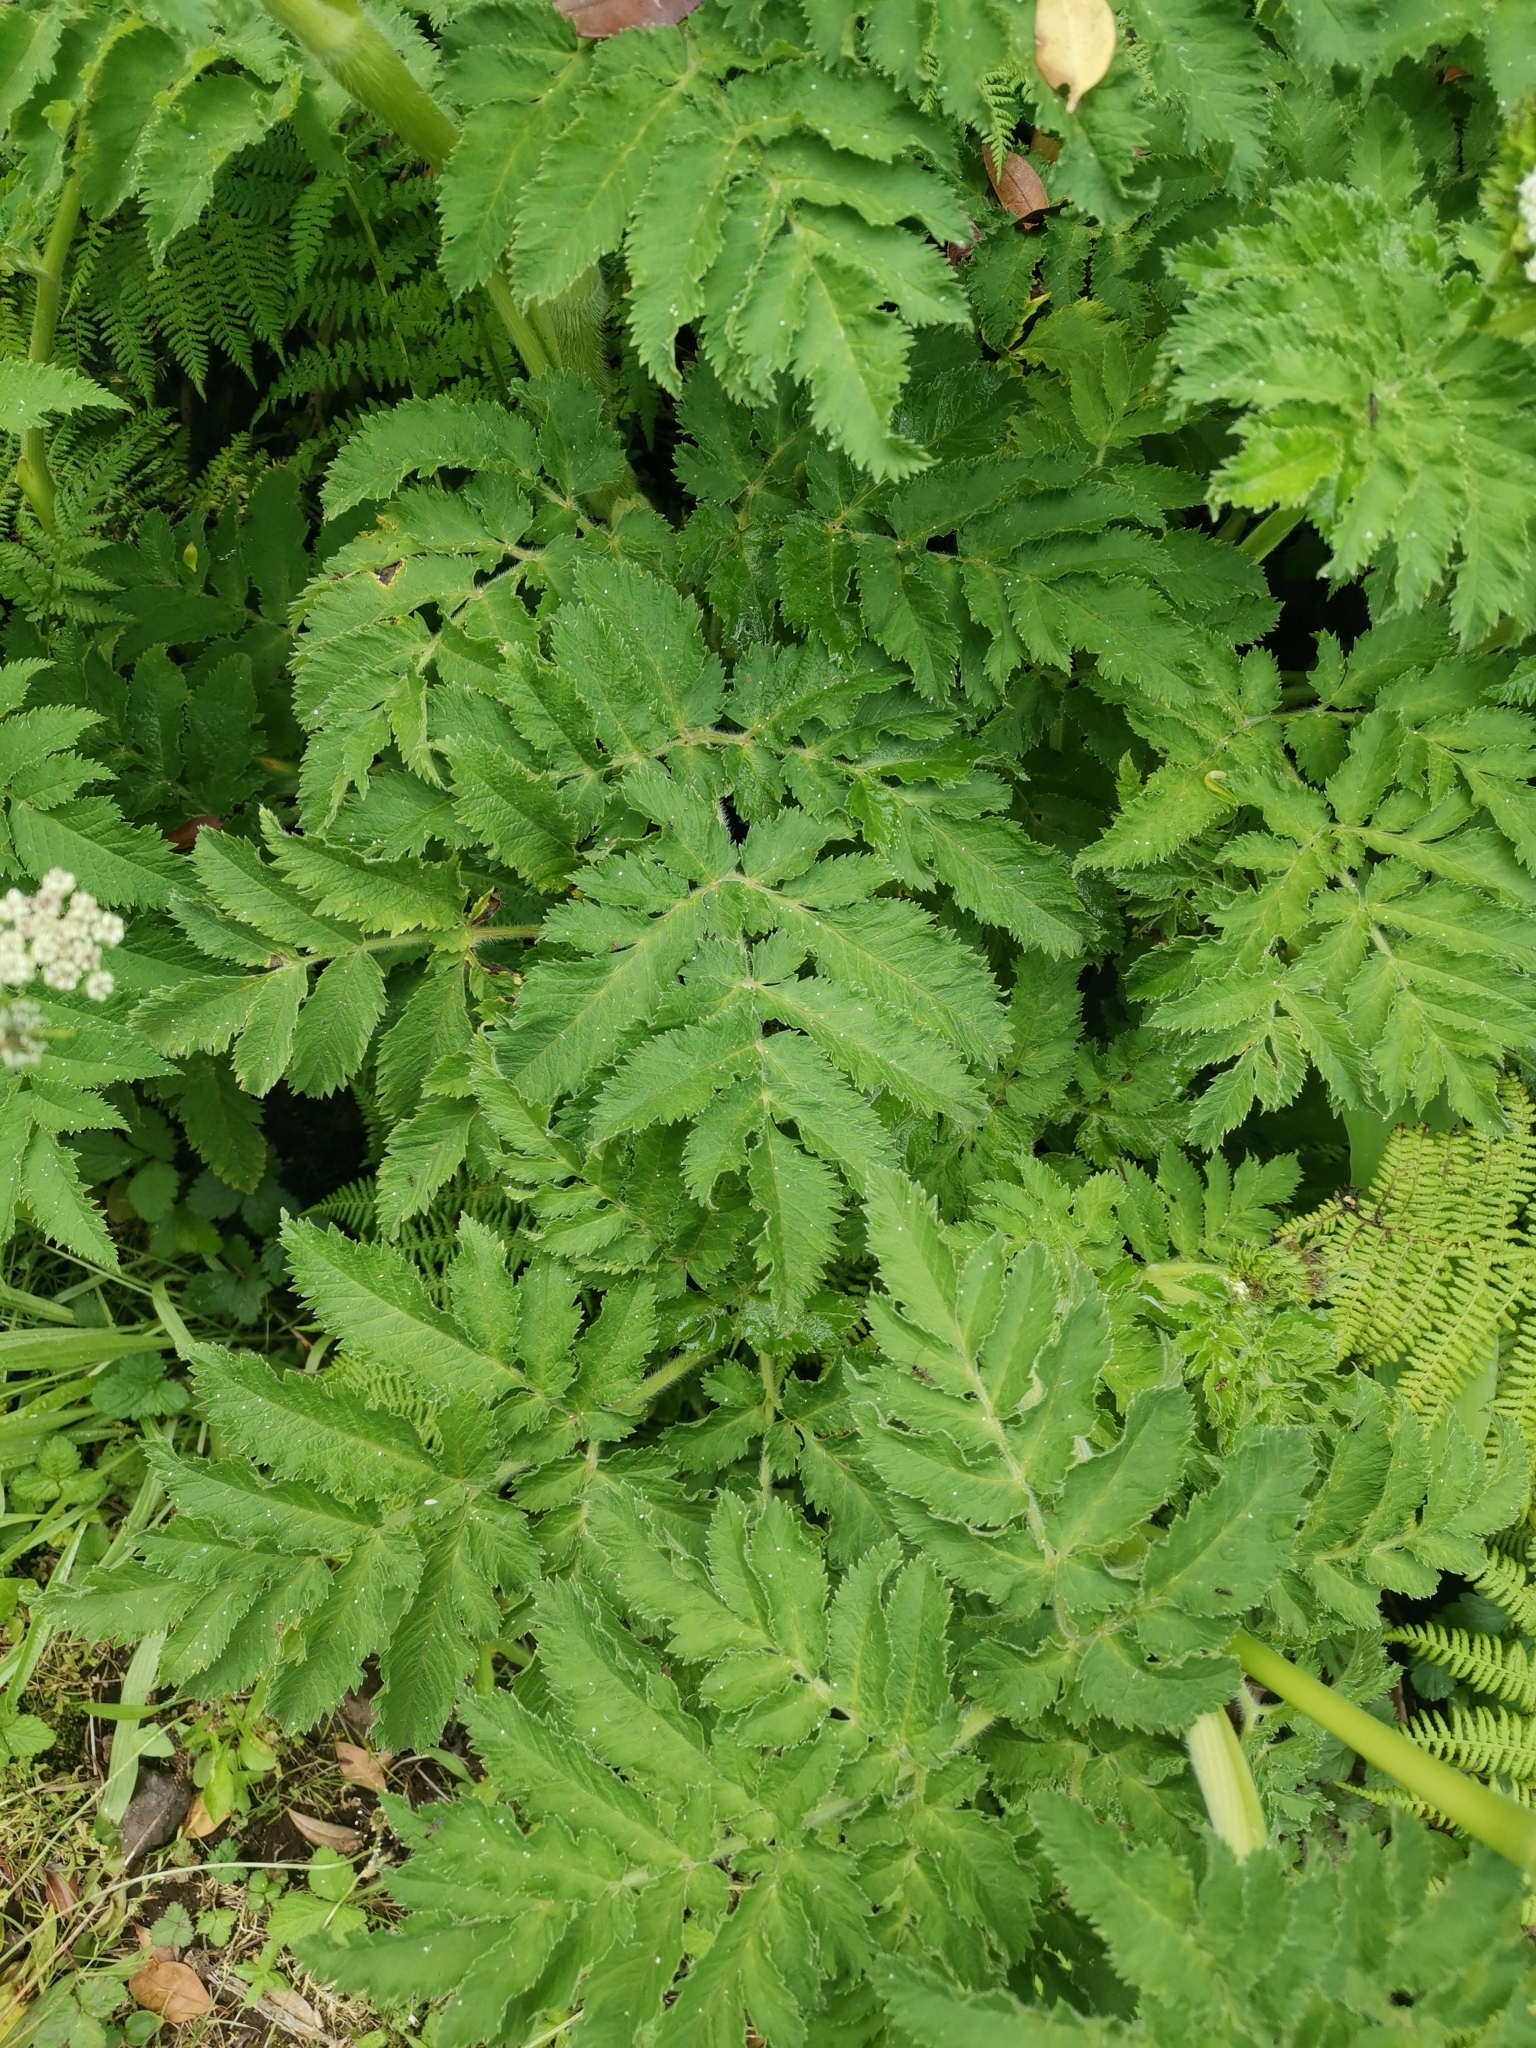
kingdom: Plantae
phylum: Tracheophyta
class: Magnoliopsida
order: Apiales
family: Apiaceae
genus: Chaerophyllum
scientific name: Chaerophyllum azoricum
